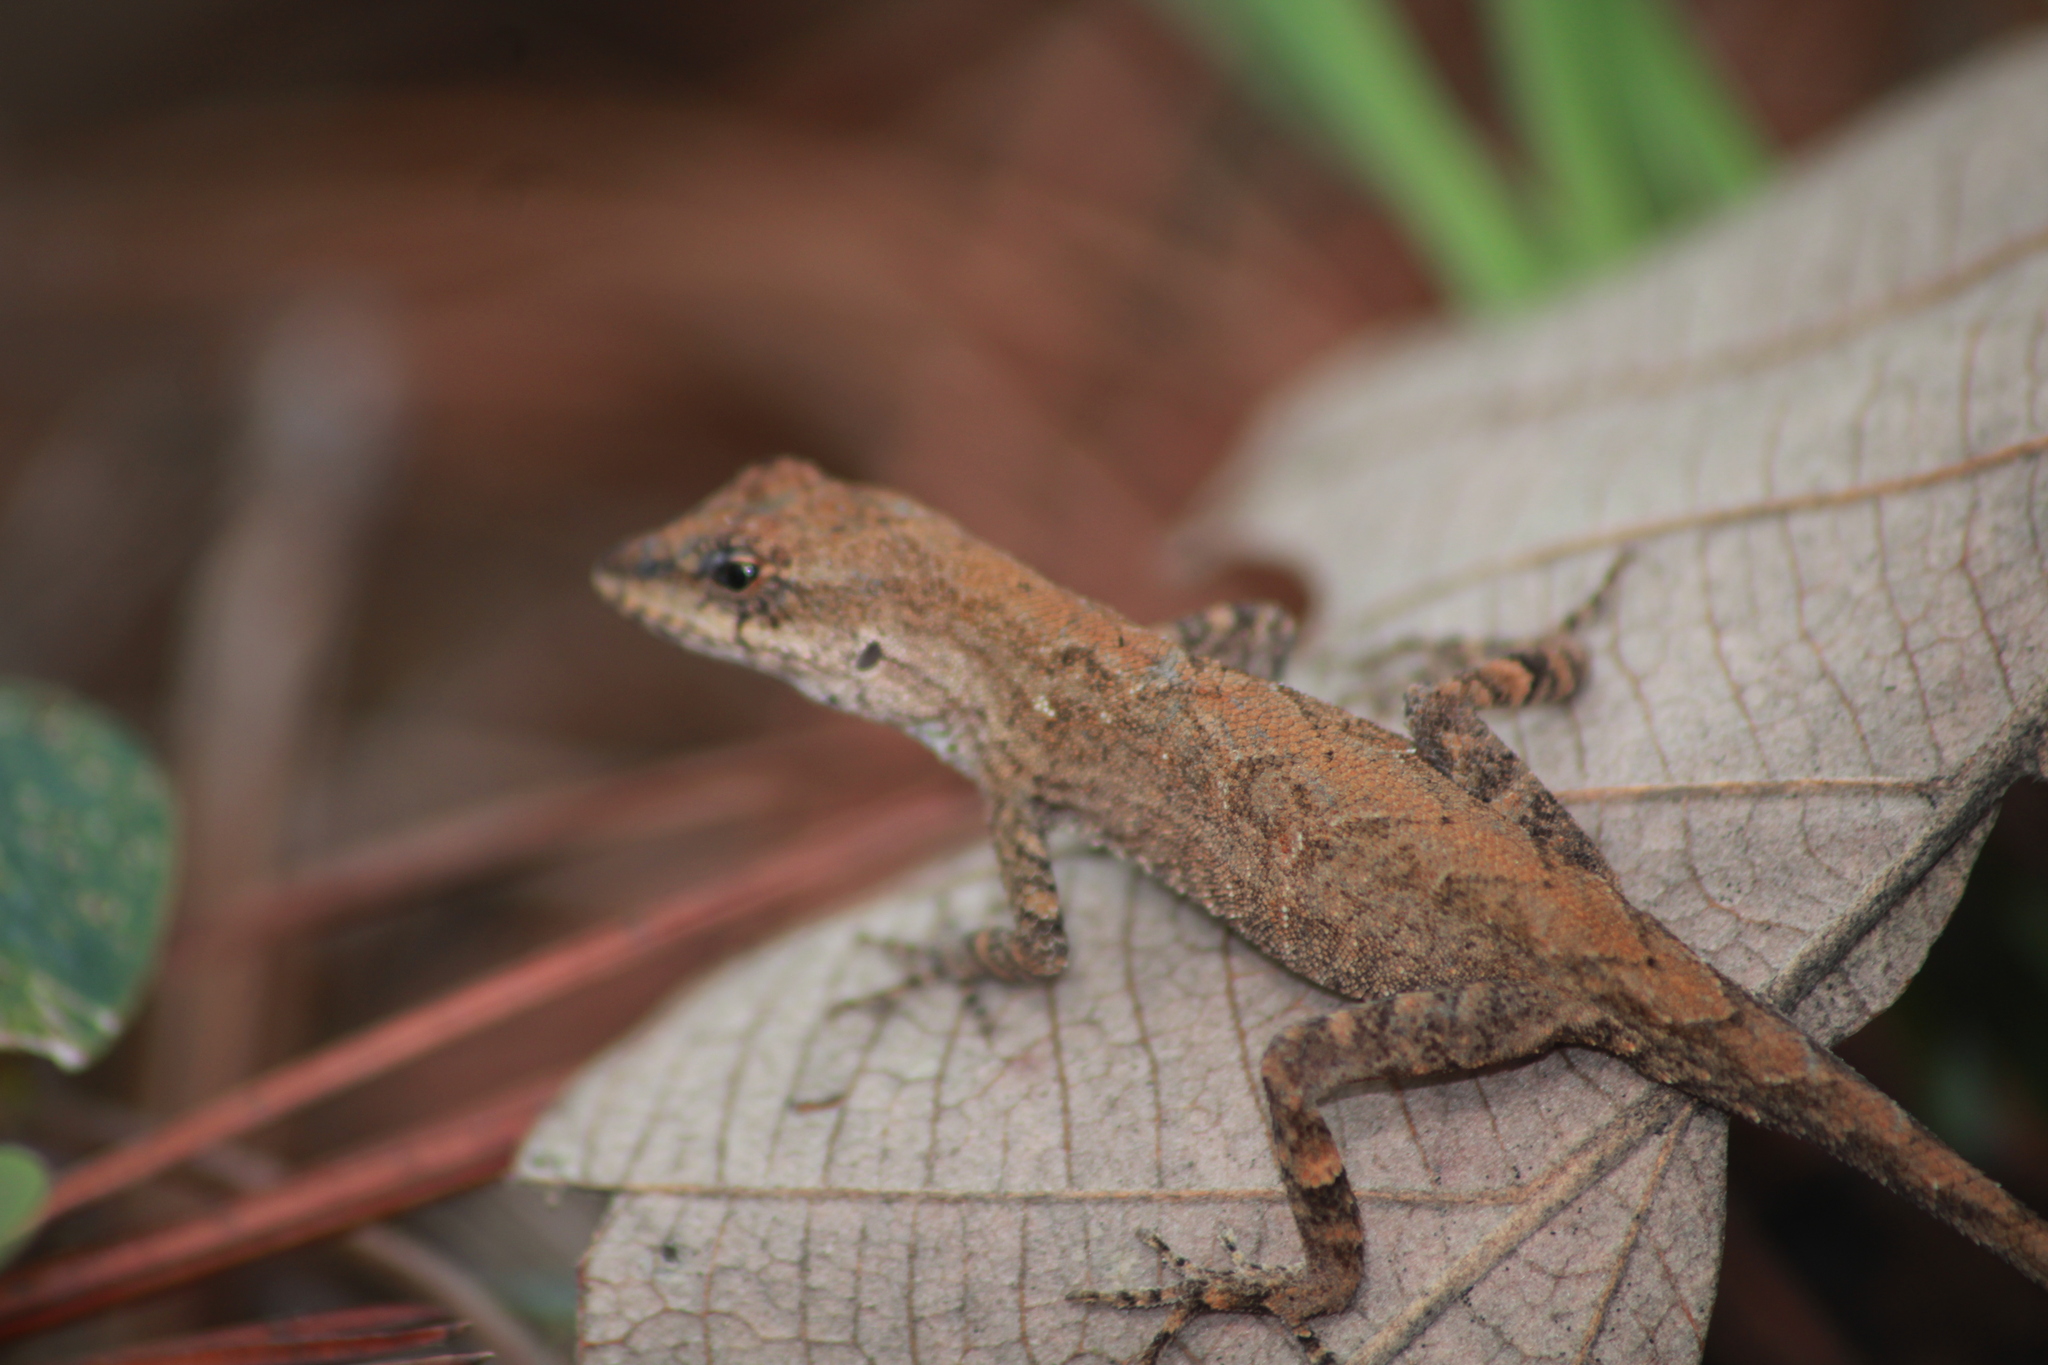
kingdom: Animalia
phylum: Chordata
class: Squamata
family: Dactyloidae
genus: Anolis
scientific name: Anolis nebulosus
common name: Clouded anole
